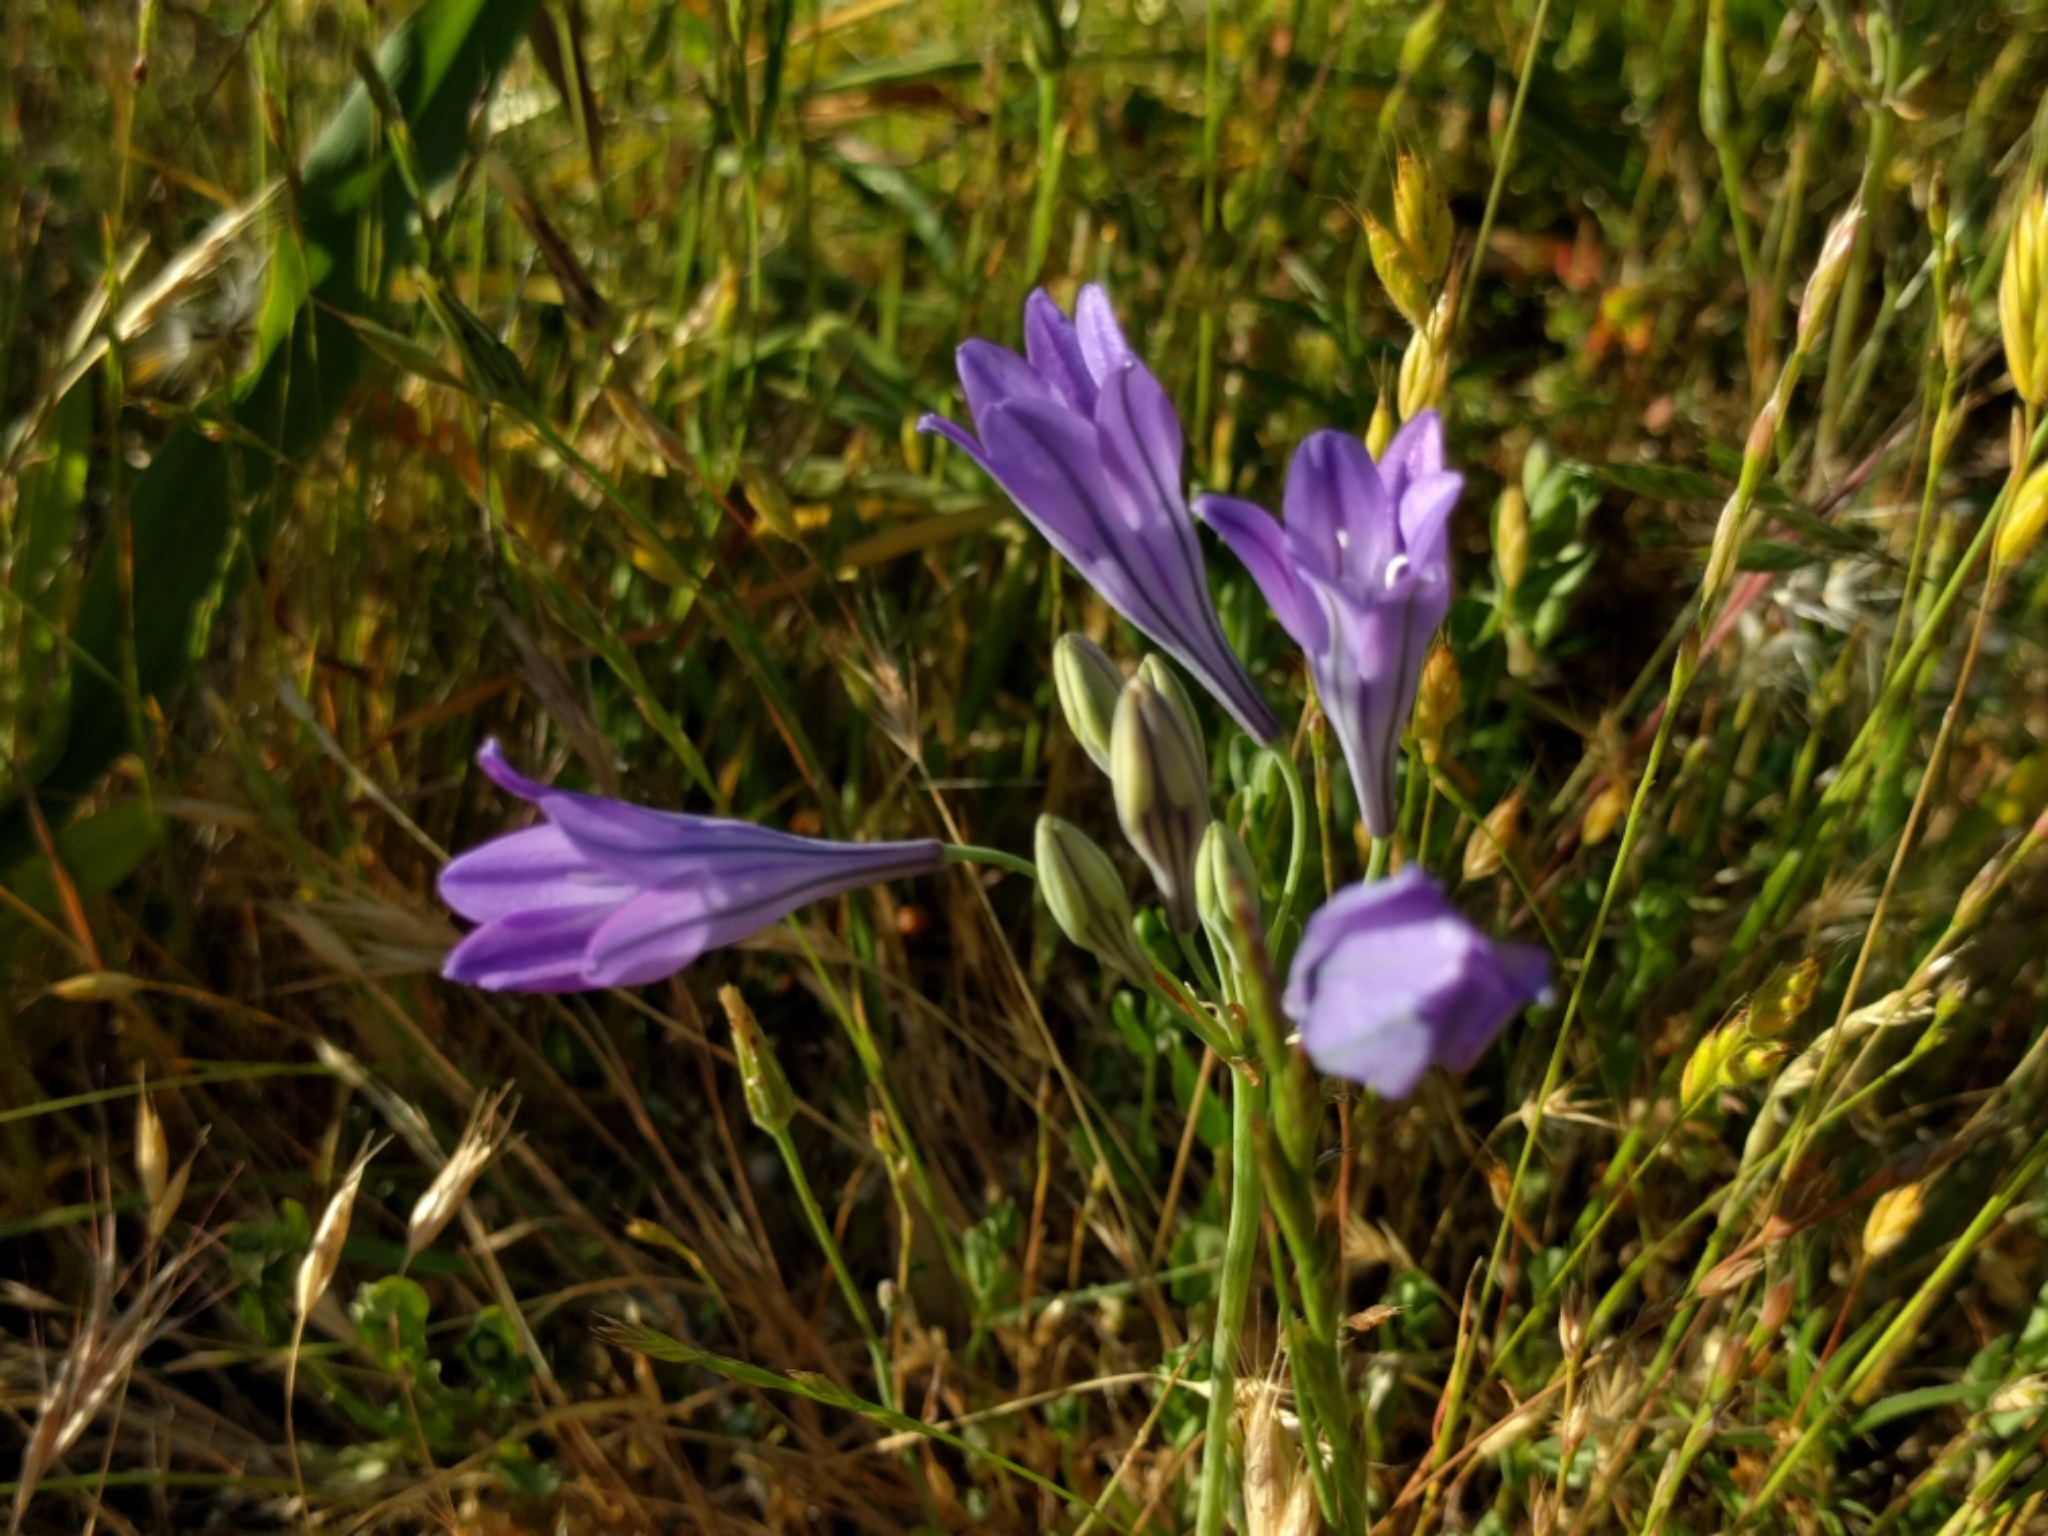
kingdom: Plantae
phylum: Tracheophyta
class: Liliopsida
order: Asparagales
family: Asparagaceae
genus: Triteleia
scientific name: Triteleia laxa
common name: Triplet-lily
